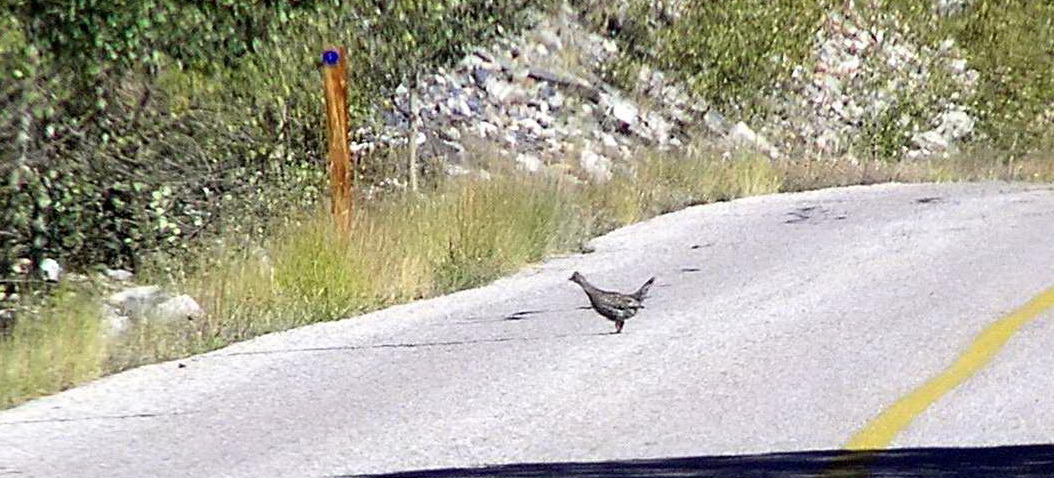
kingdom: Animalia
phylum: Chordata
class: Aves
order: Galliformes
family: Phasianidae
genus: Dendragapus
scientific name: Dendragapus obscurus
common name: Dusky grouse
